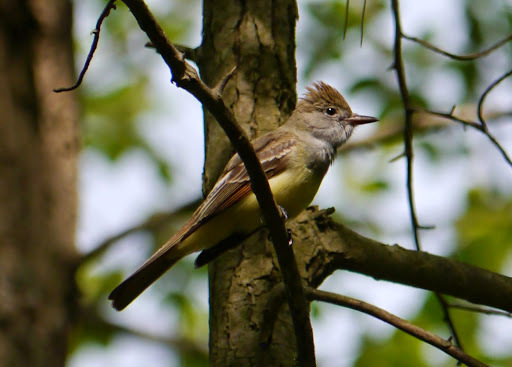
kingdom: Animalia
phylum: Chordata
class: Aves
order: Passeriformes
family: Tyrannidae
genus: Myiarchus
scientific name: Myiarchus crinitus
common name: Great crested flycatcher
